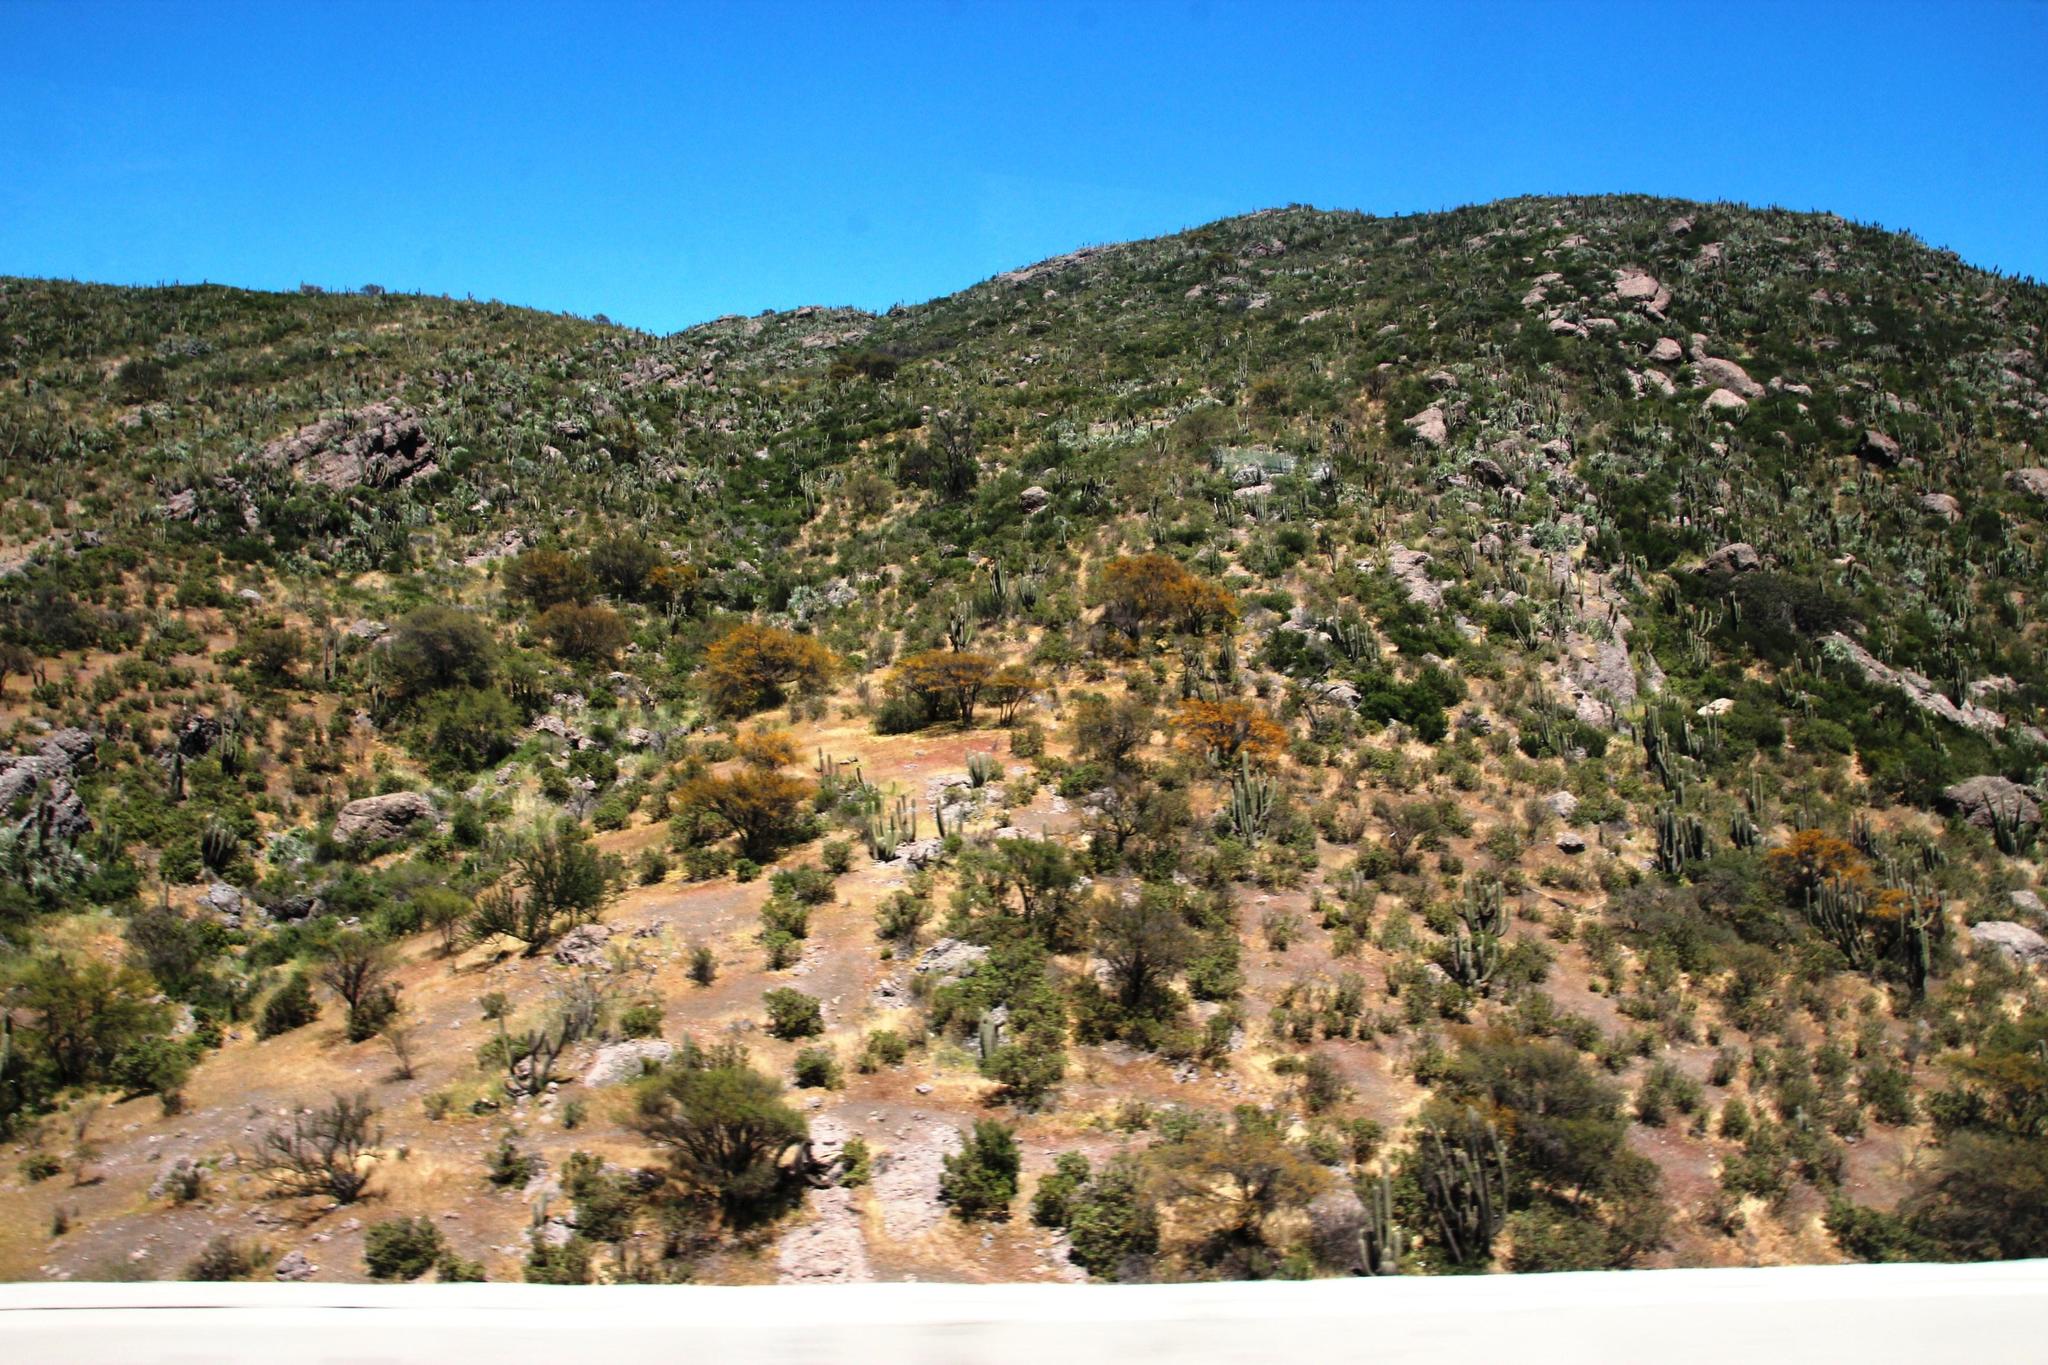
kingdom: Plantae
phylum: Tracheophyta
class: Magnoliopsida
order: Fabales
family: Fabaceae
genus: Vachellia
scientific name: Vachellia caven
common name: Roman cassie
